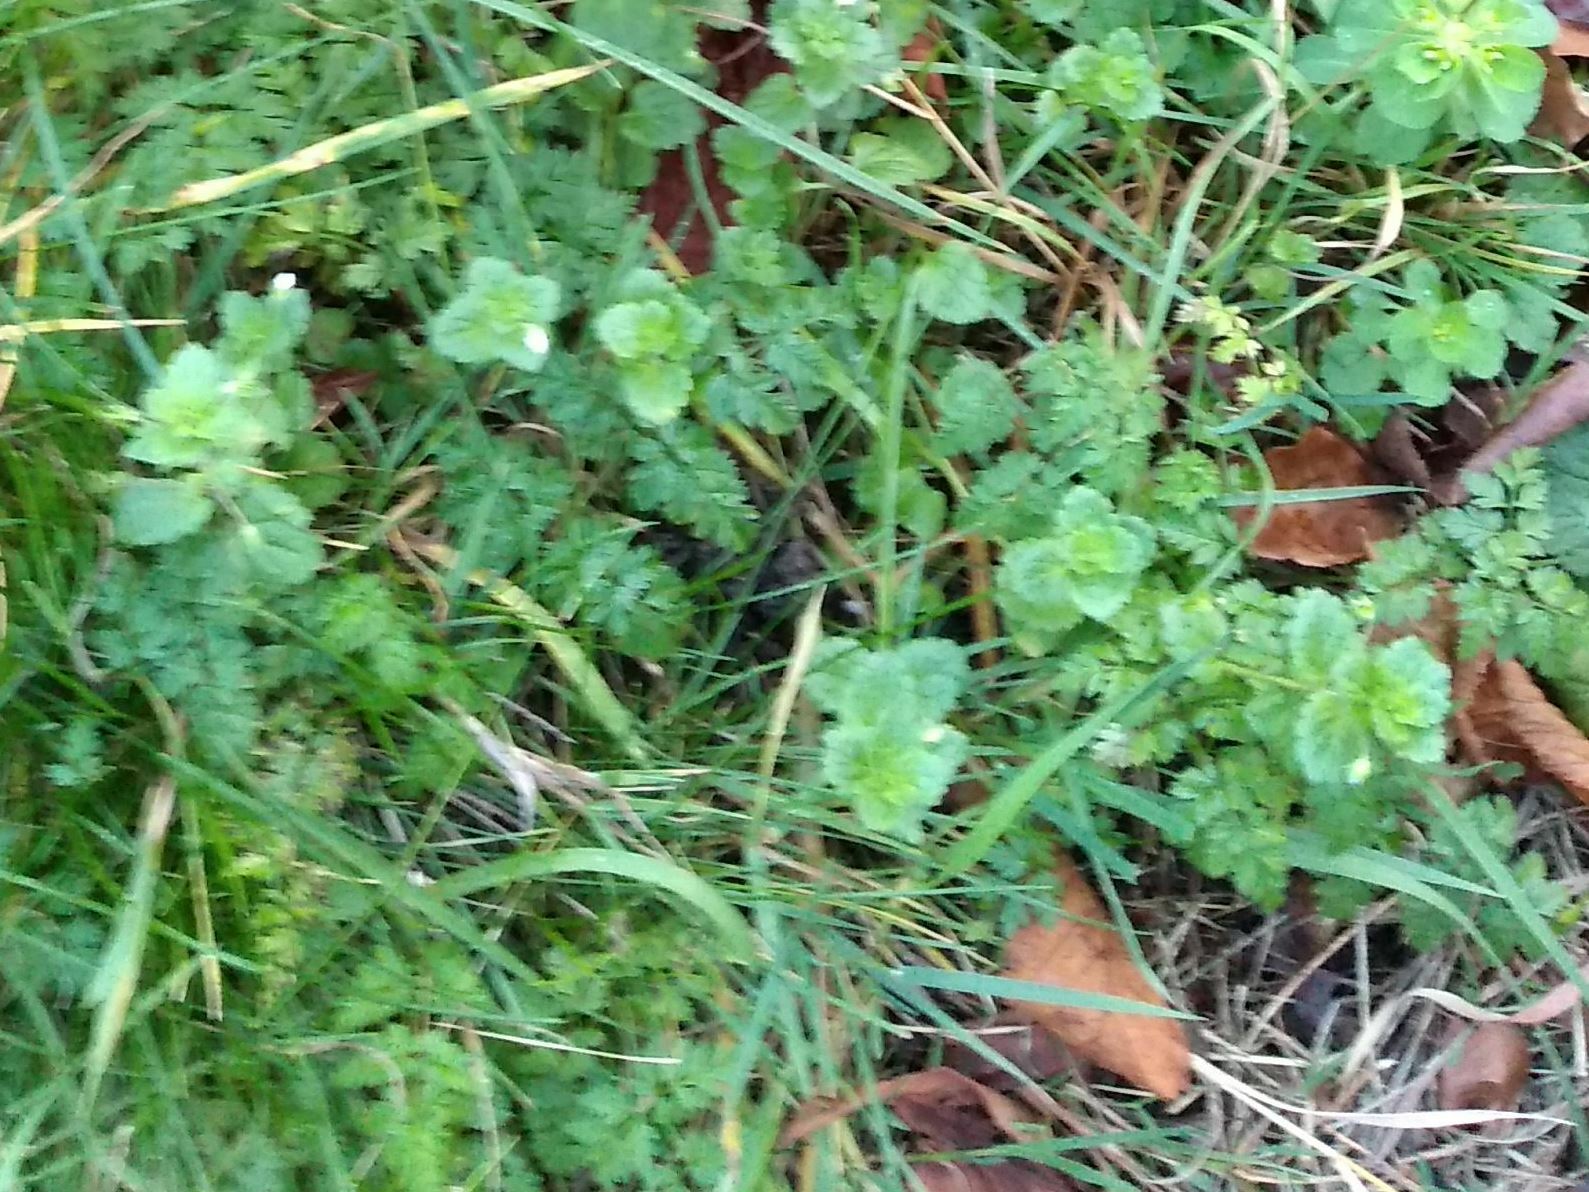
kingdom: Plantae
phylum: Tracheophyta
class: Magnoliopsida
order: Lamiales
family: Plantaginaceae
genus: Veronica
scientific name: Veronica persica
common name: Common field-speedwell
